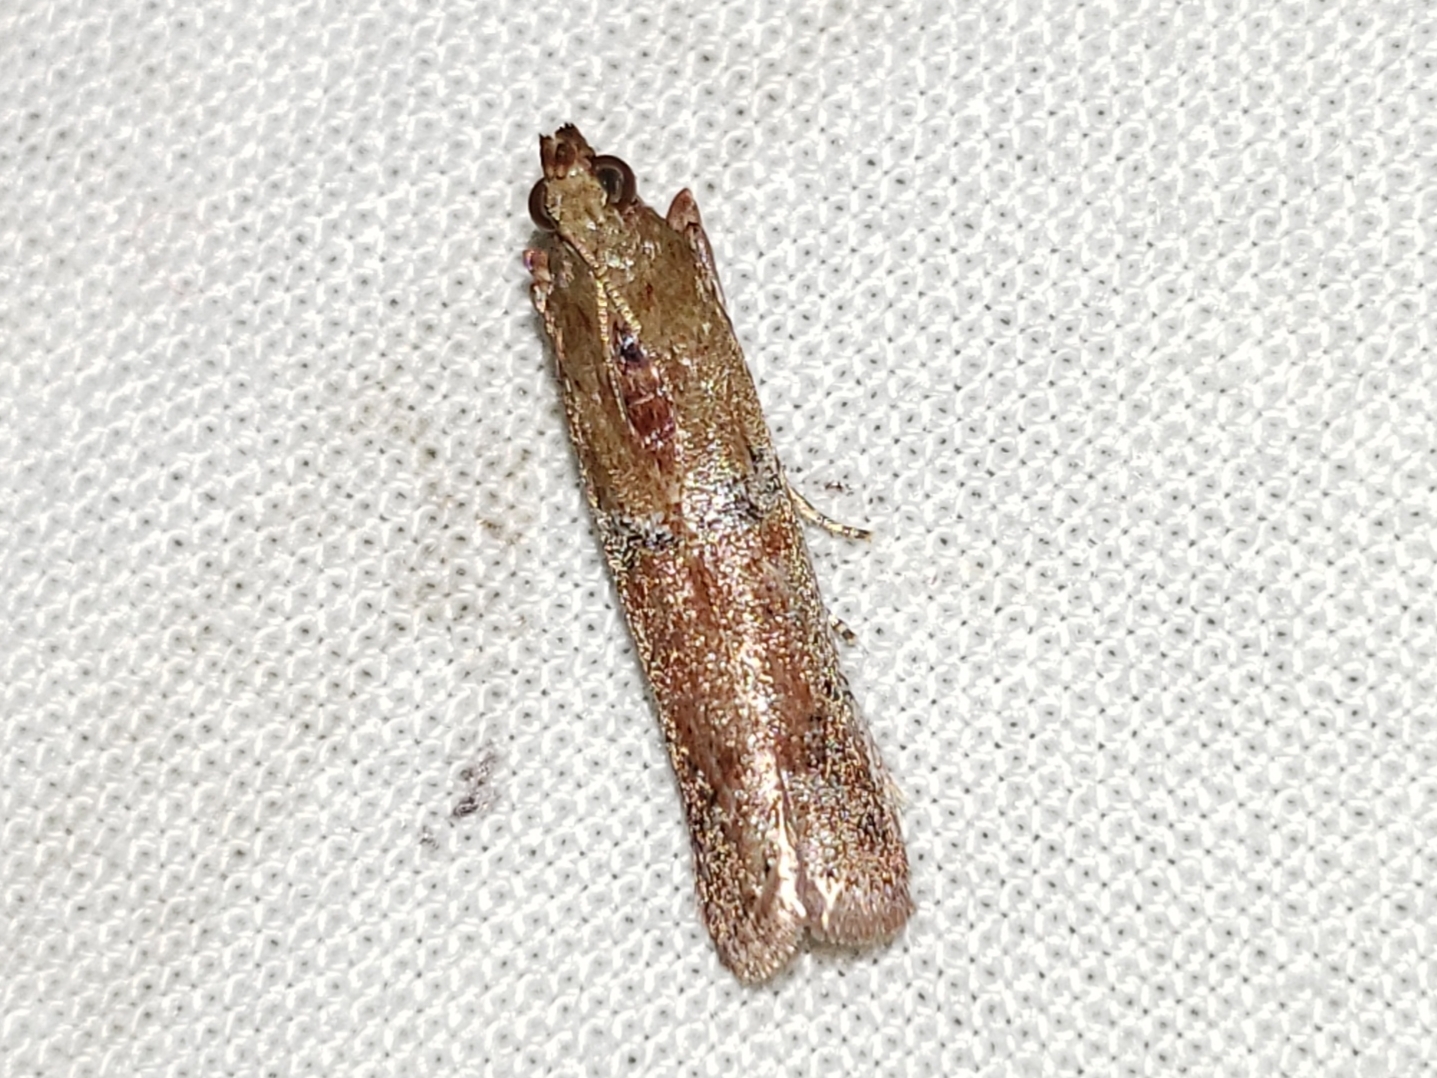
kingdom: Animalia
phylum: Arthropoda
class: Insecta
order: Lepidoptera
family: Pyralidae
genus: Atheloca
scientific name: Atheloca subrufella
